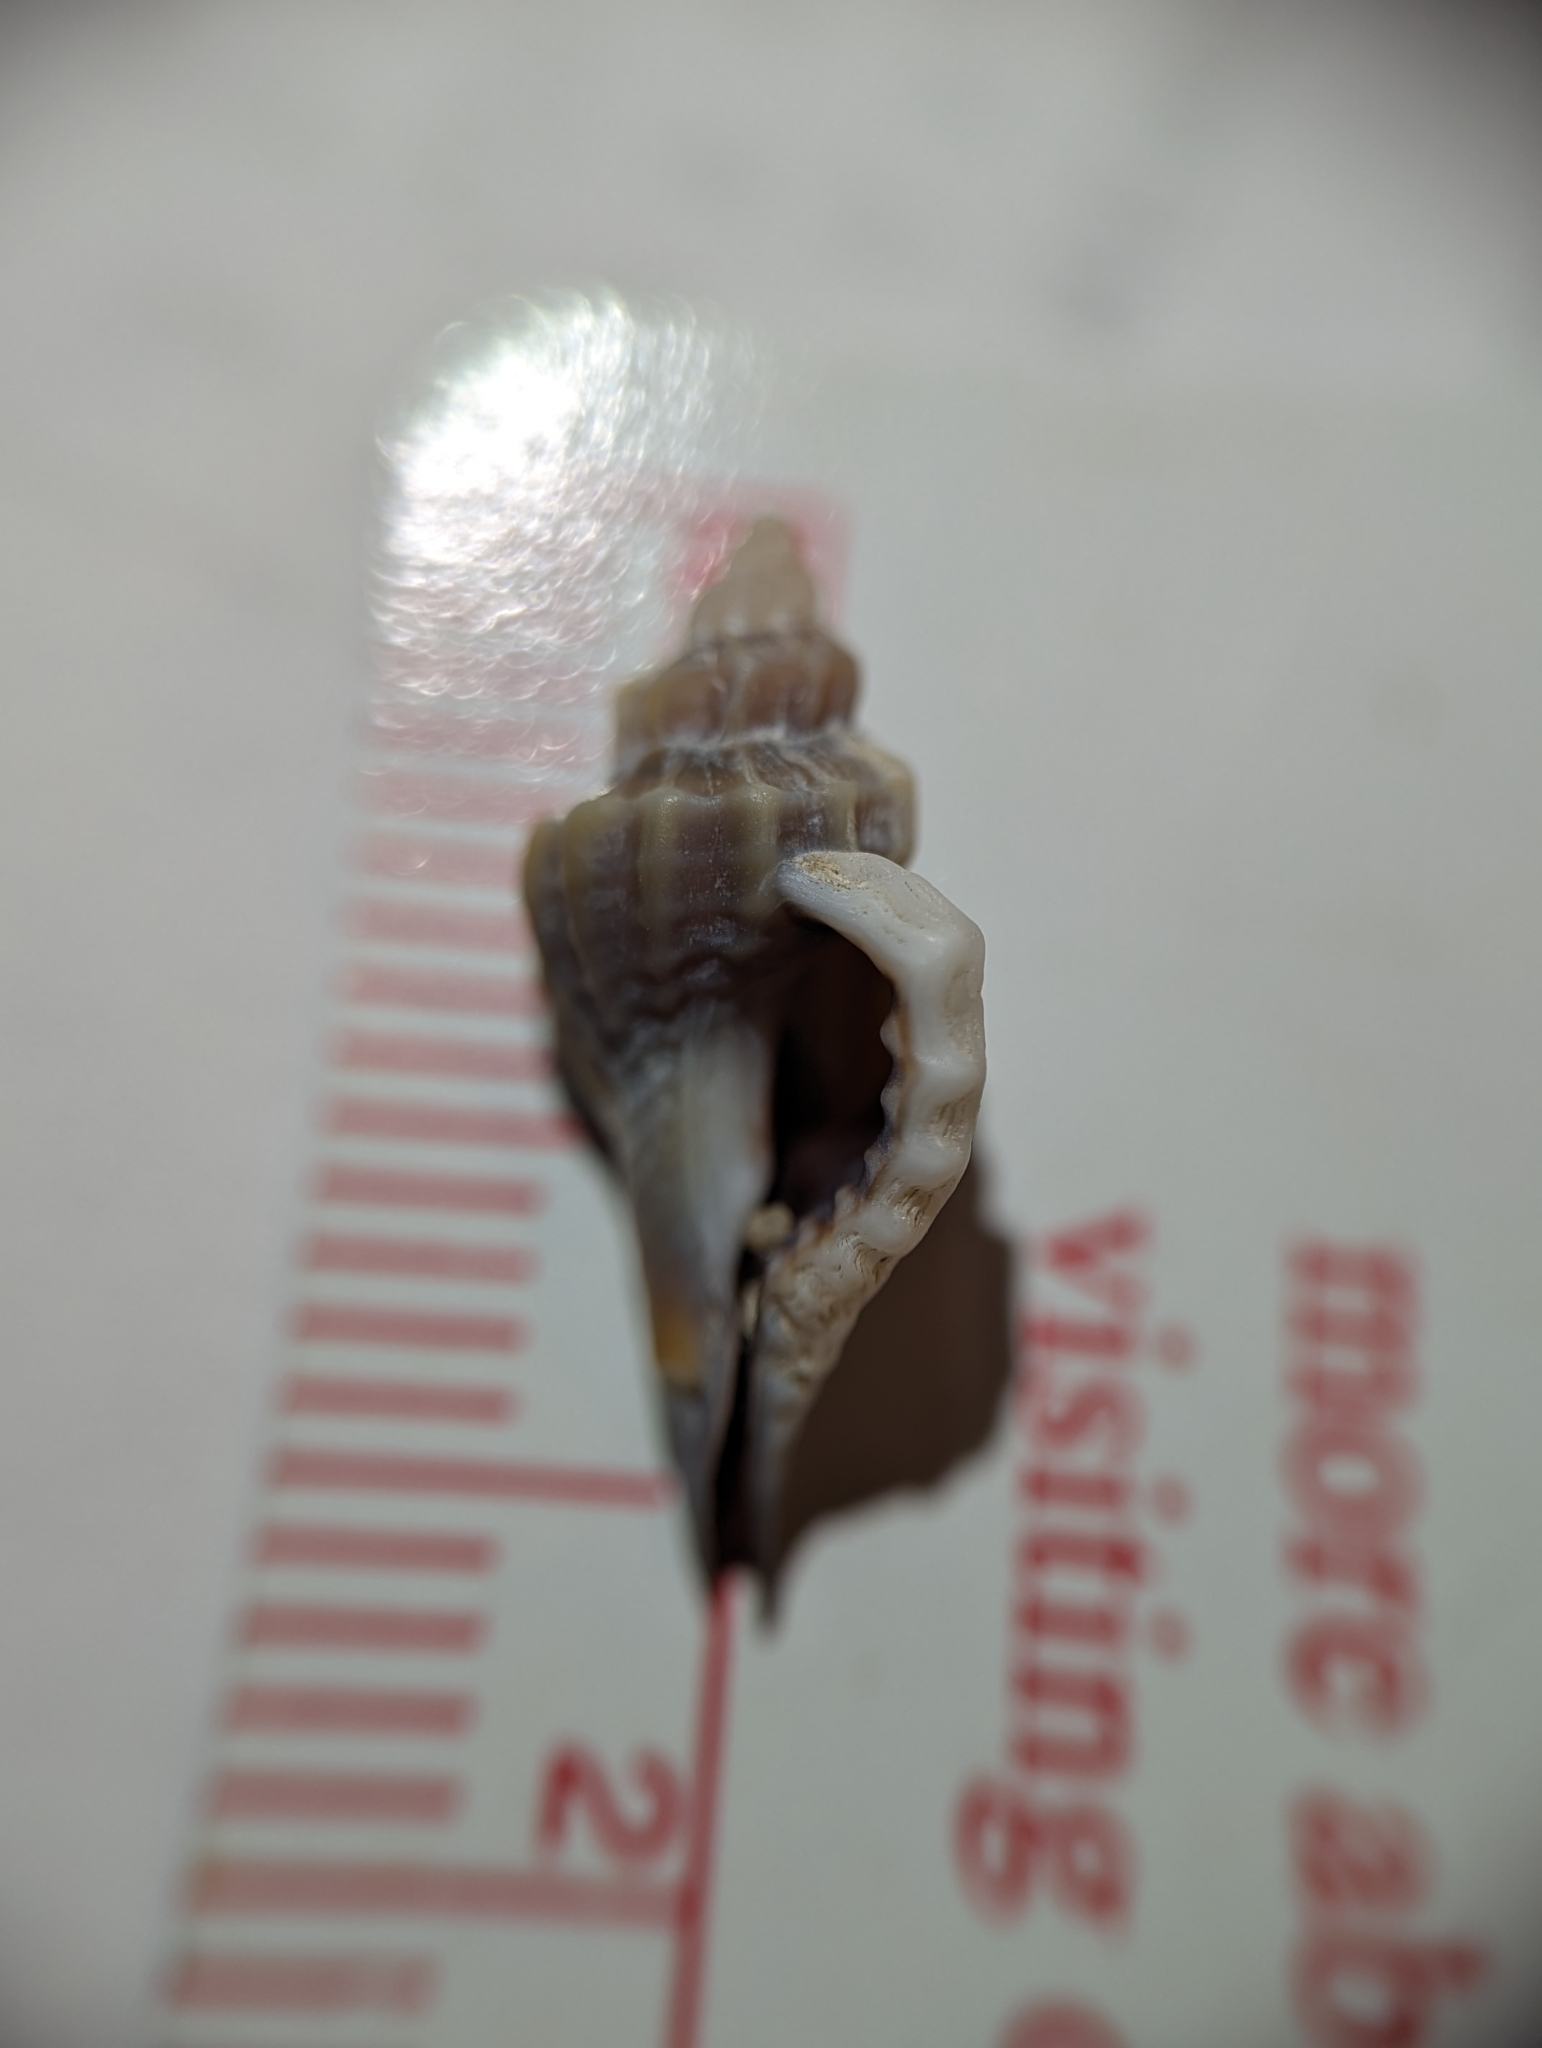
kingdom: Animalia
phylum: Mollusca
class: Gastropoda
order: Neogastropoda
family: Muricidae
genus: Eupleura
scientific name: Eupleura caudata
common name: Thick-lip drill
